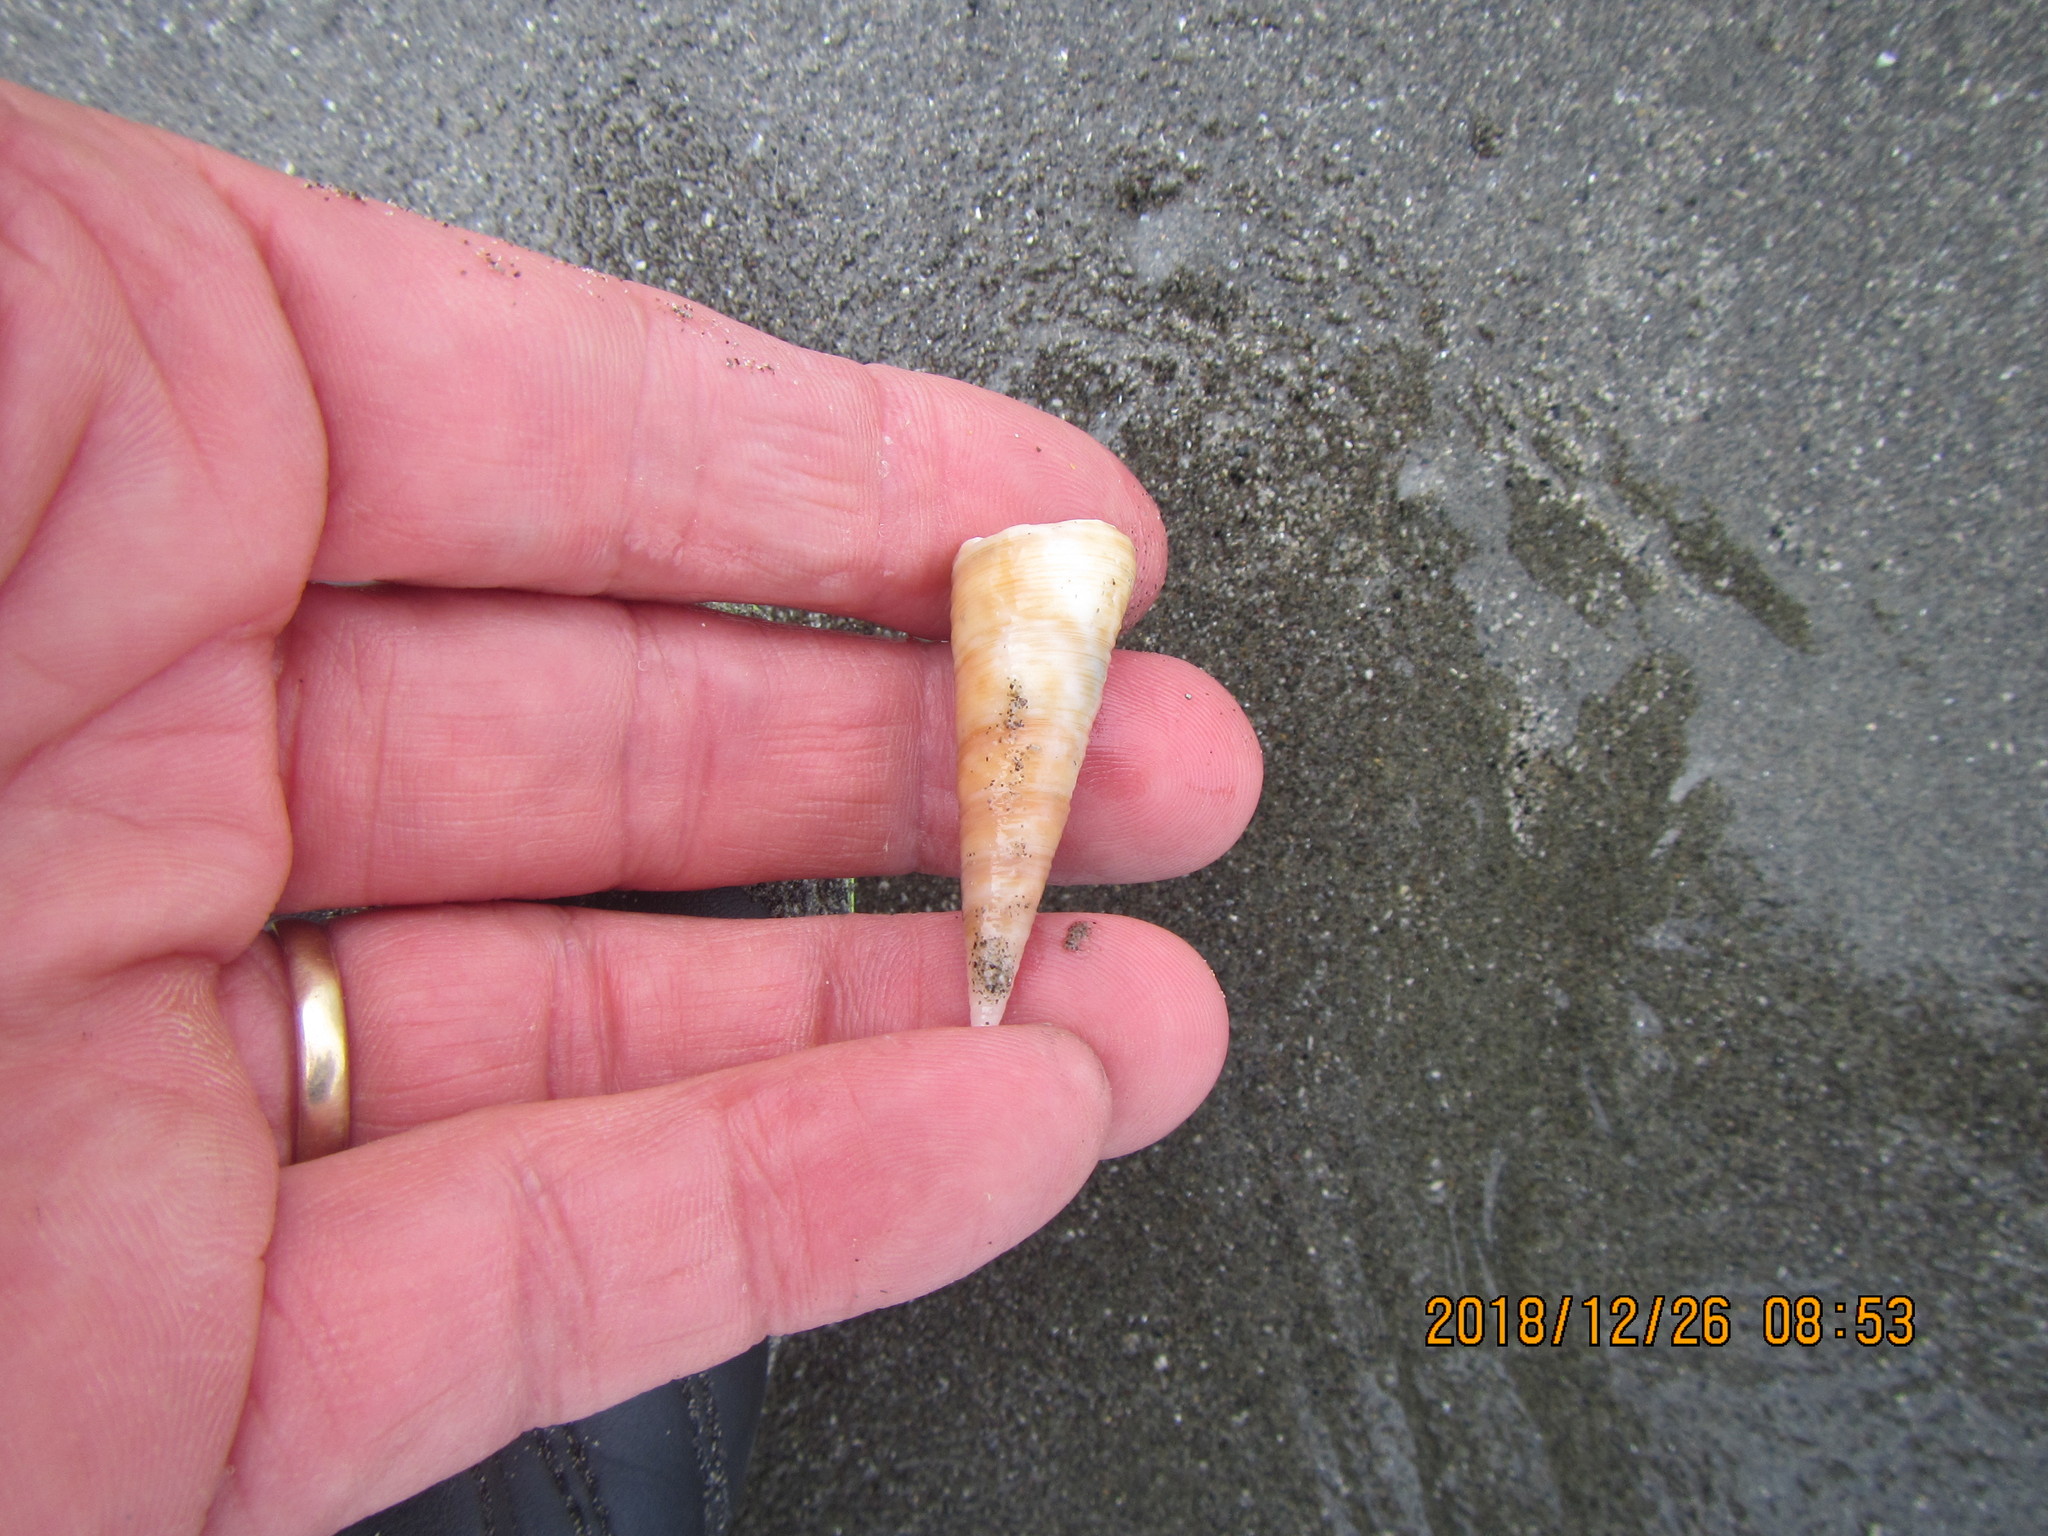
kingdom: Animalia
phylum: Mollusca
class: Gastropoda
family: Turritellidae
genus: Maoricolpus
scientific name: Maoricolpus roseus
